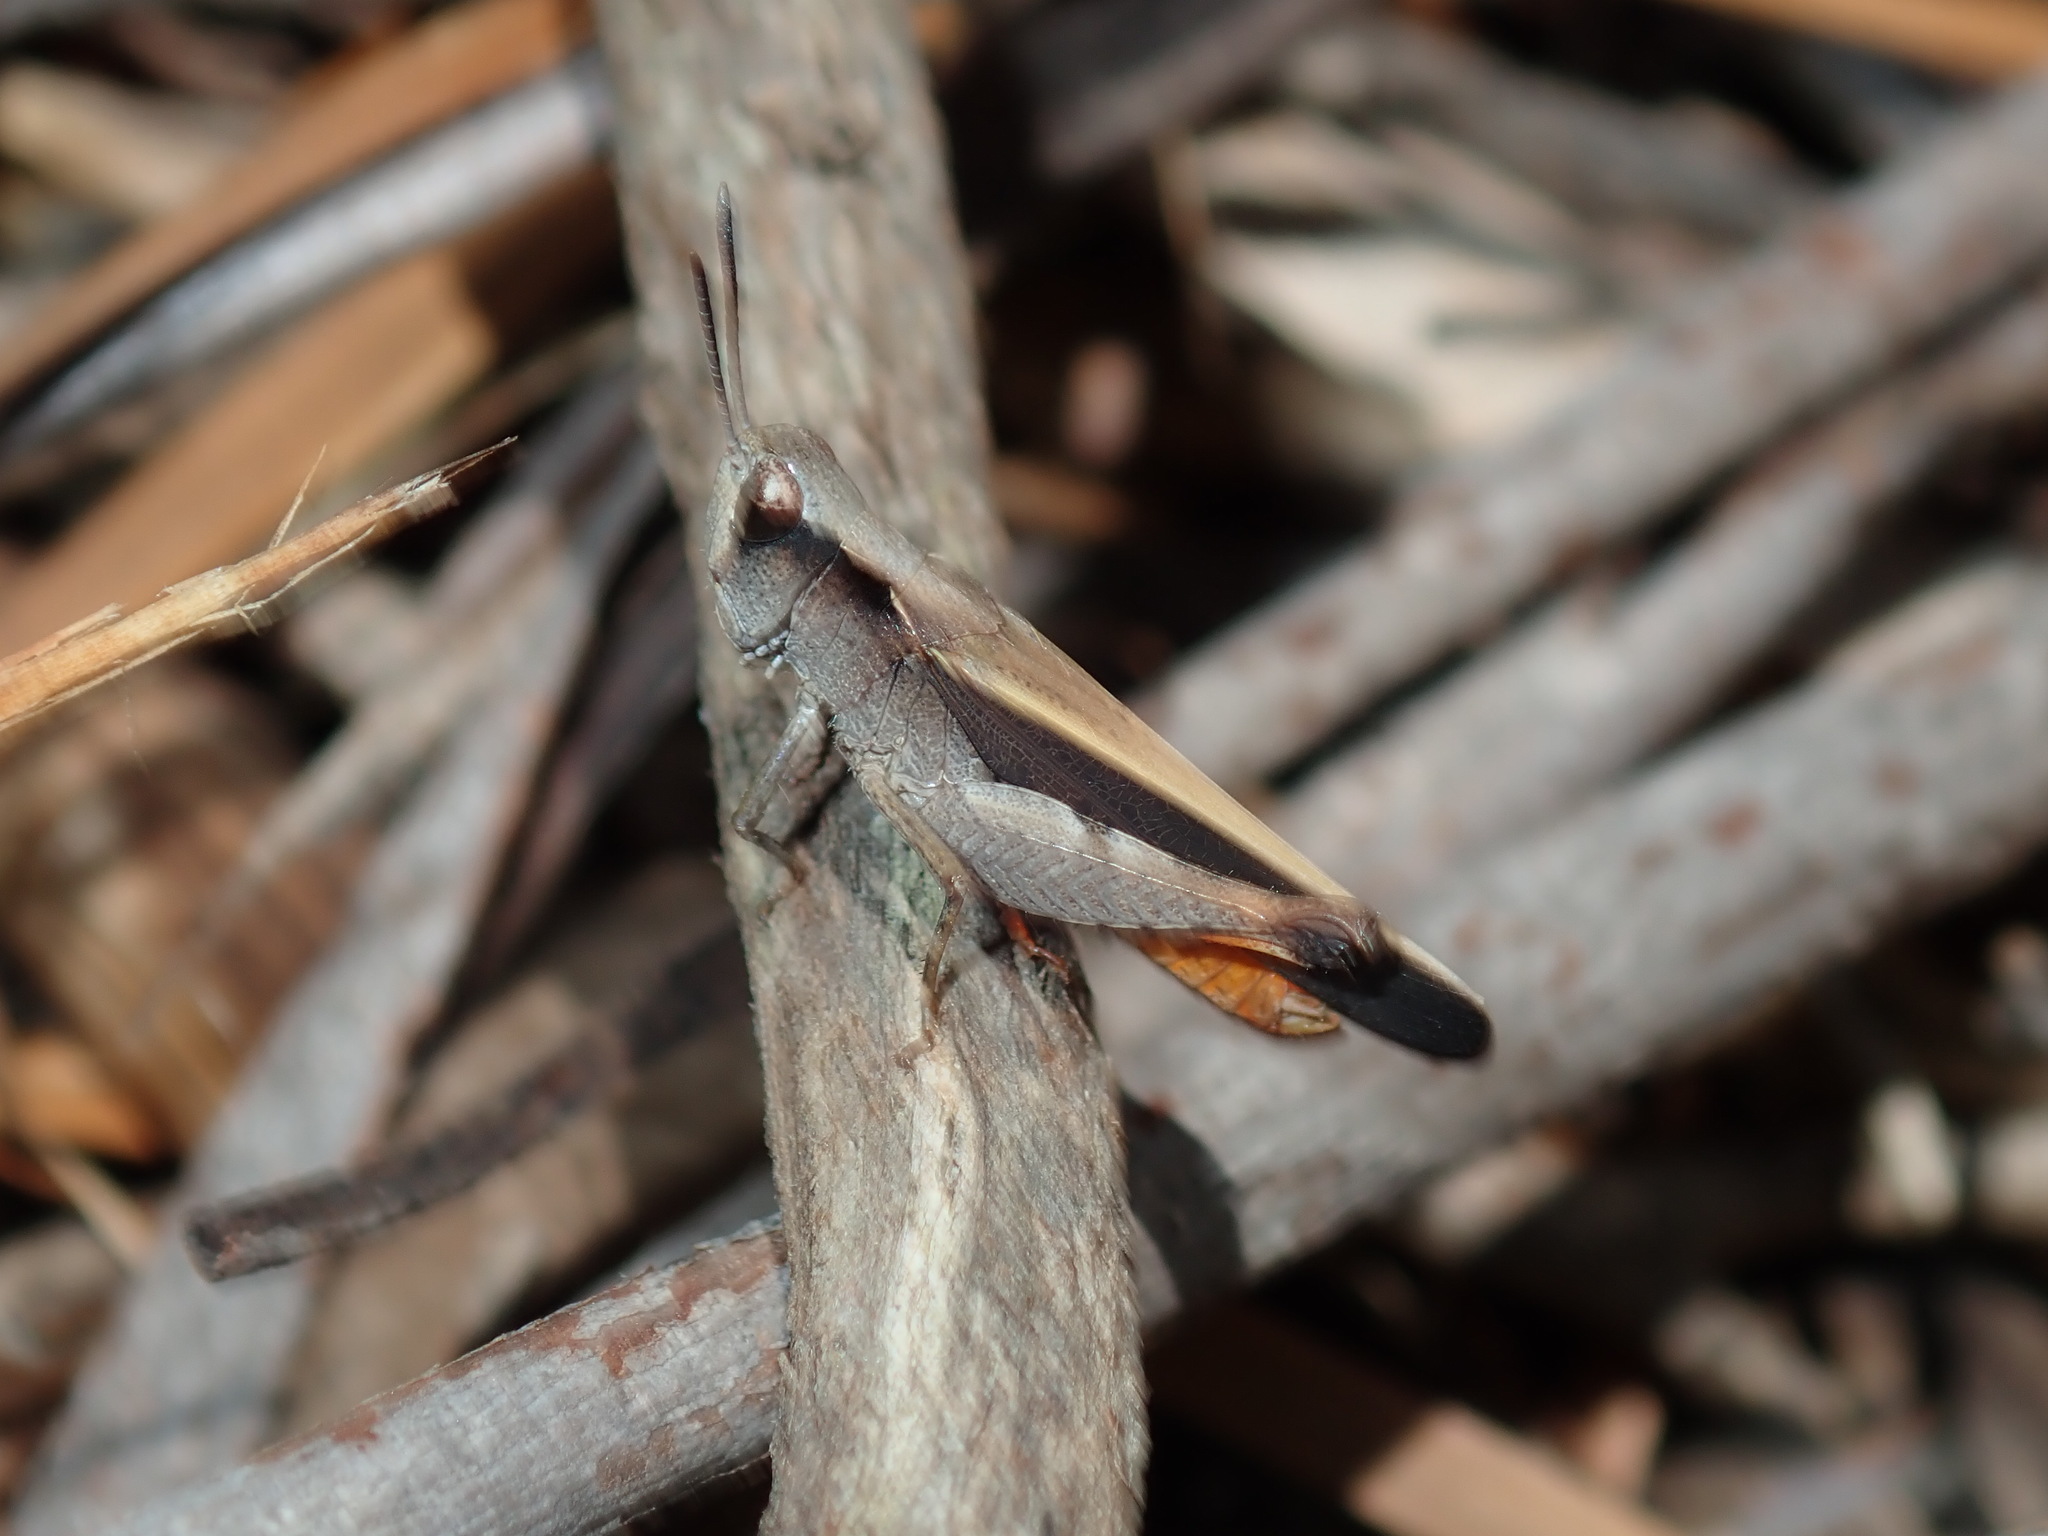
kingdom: Animalia
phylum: Arthropoda
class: Insecta
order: Orthoptera
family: Acrididae
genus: Cryptobothrus
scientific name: Cryptobothrus chrysophorus
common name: Golden bandwing
